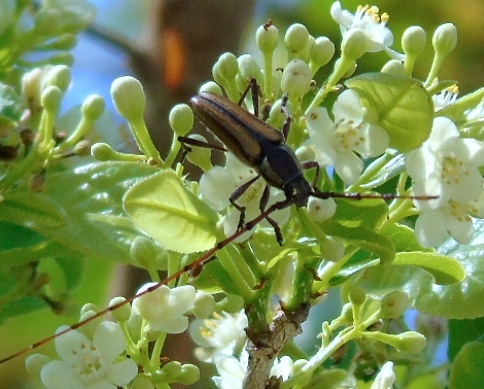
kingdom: Animalia
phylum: Arthropoda
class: Insecta
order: Coleoptera
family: Cerambycidae
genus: Sphaenothecus
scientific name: Sphaenothecus maccartyi
